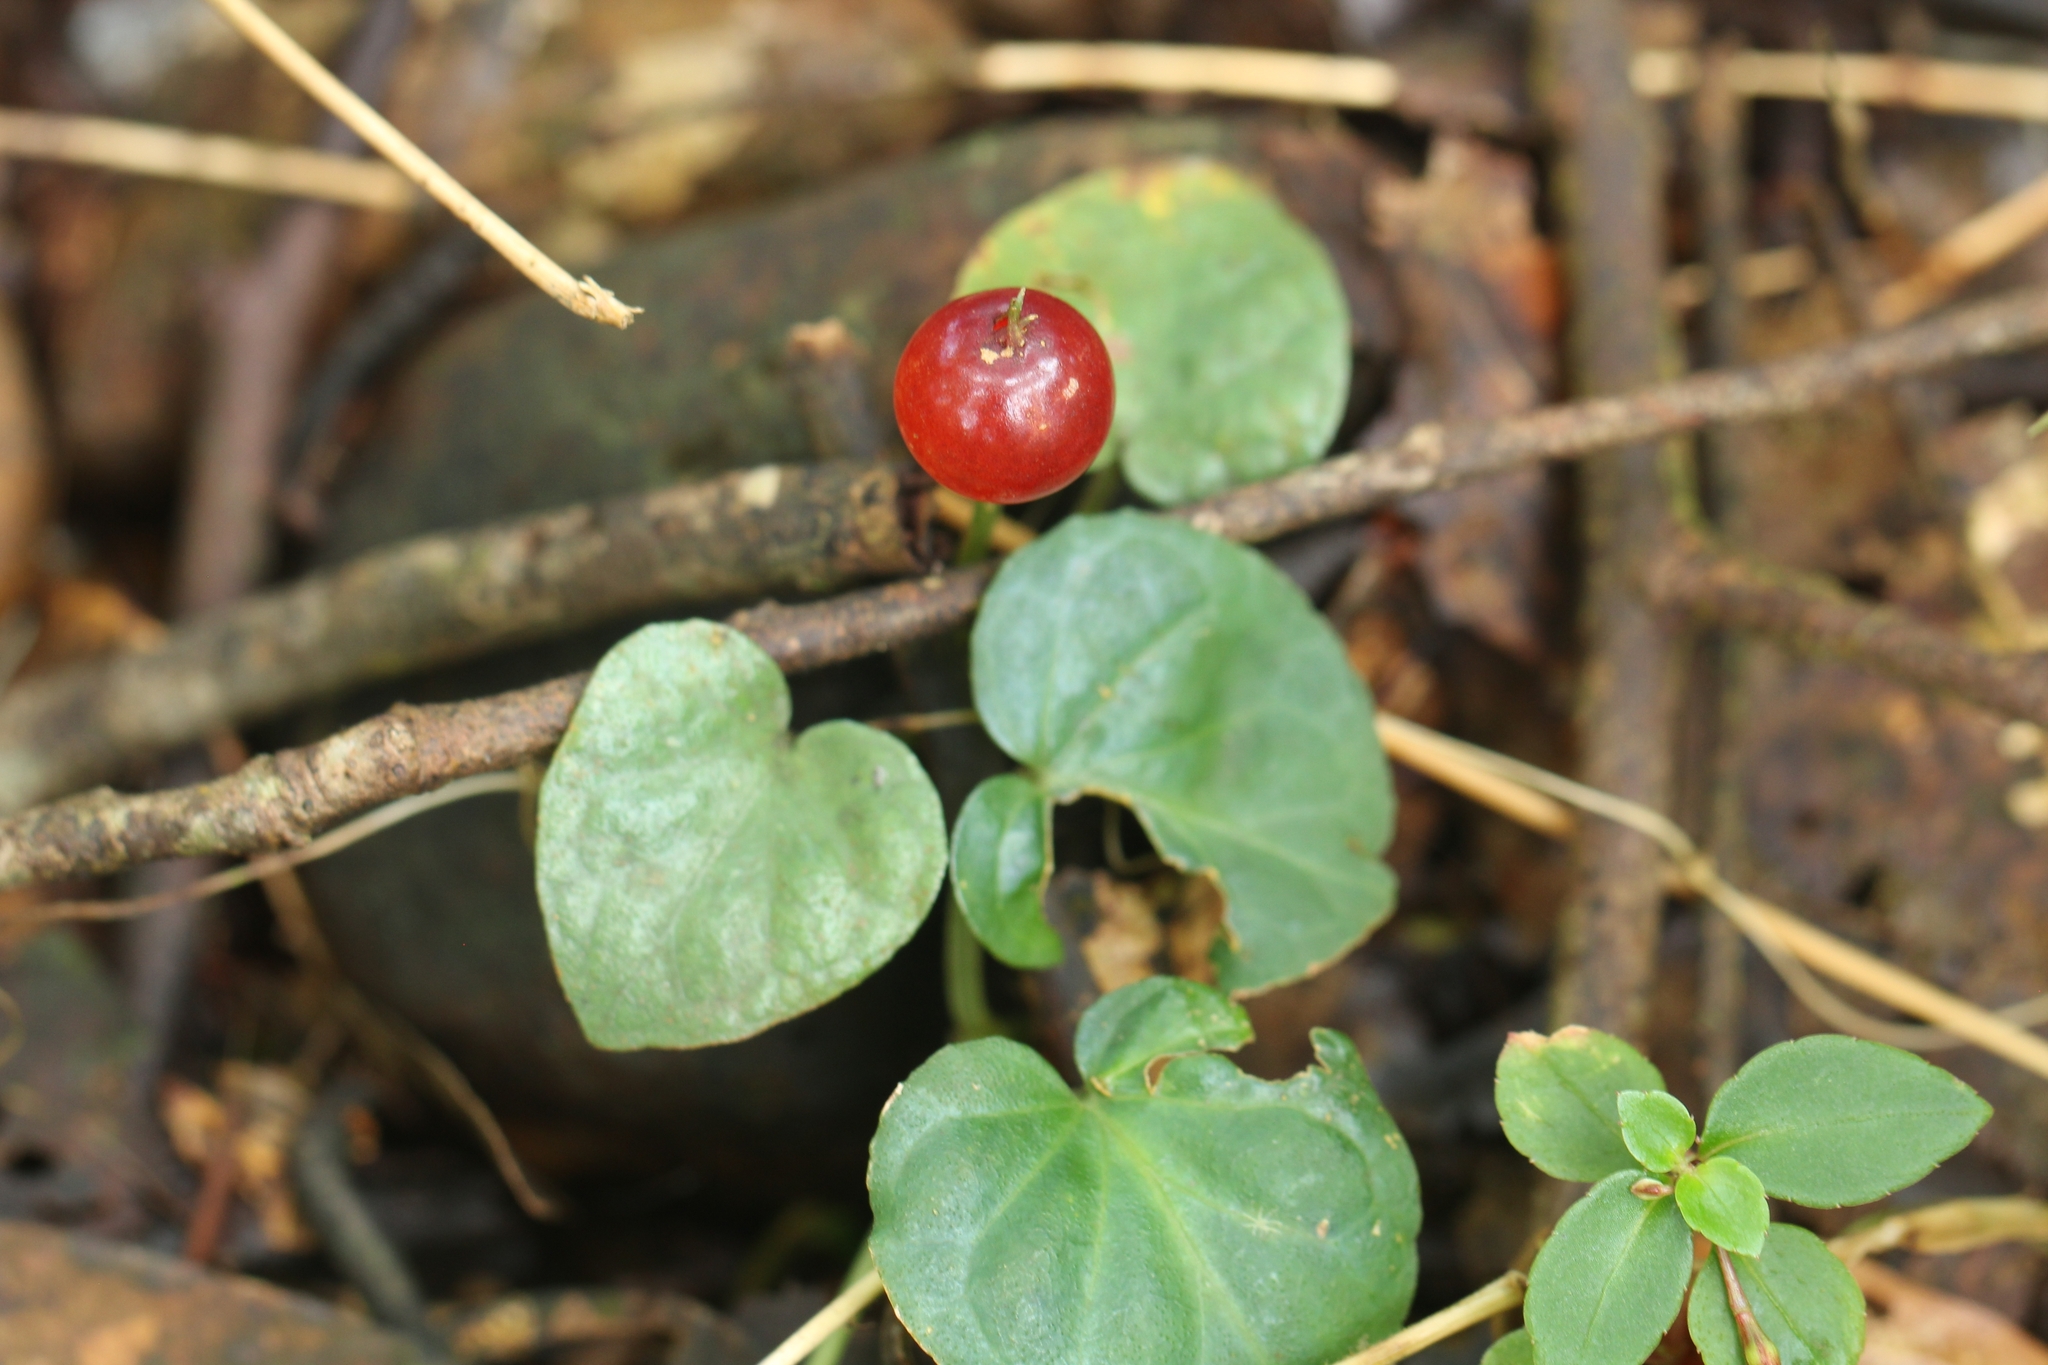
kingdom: Plantae
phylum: Tracheophyta
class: Magnoliopsida
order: Gentianales
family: Rubiaceae
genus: Geophila
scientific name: Geophila herbacea
